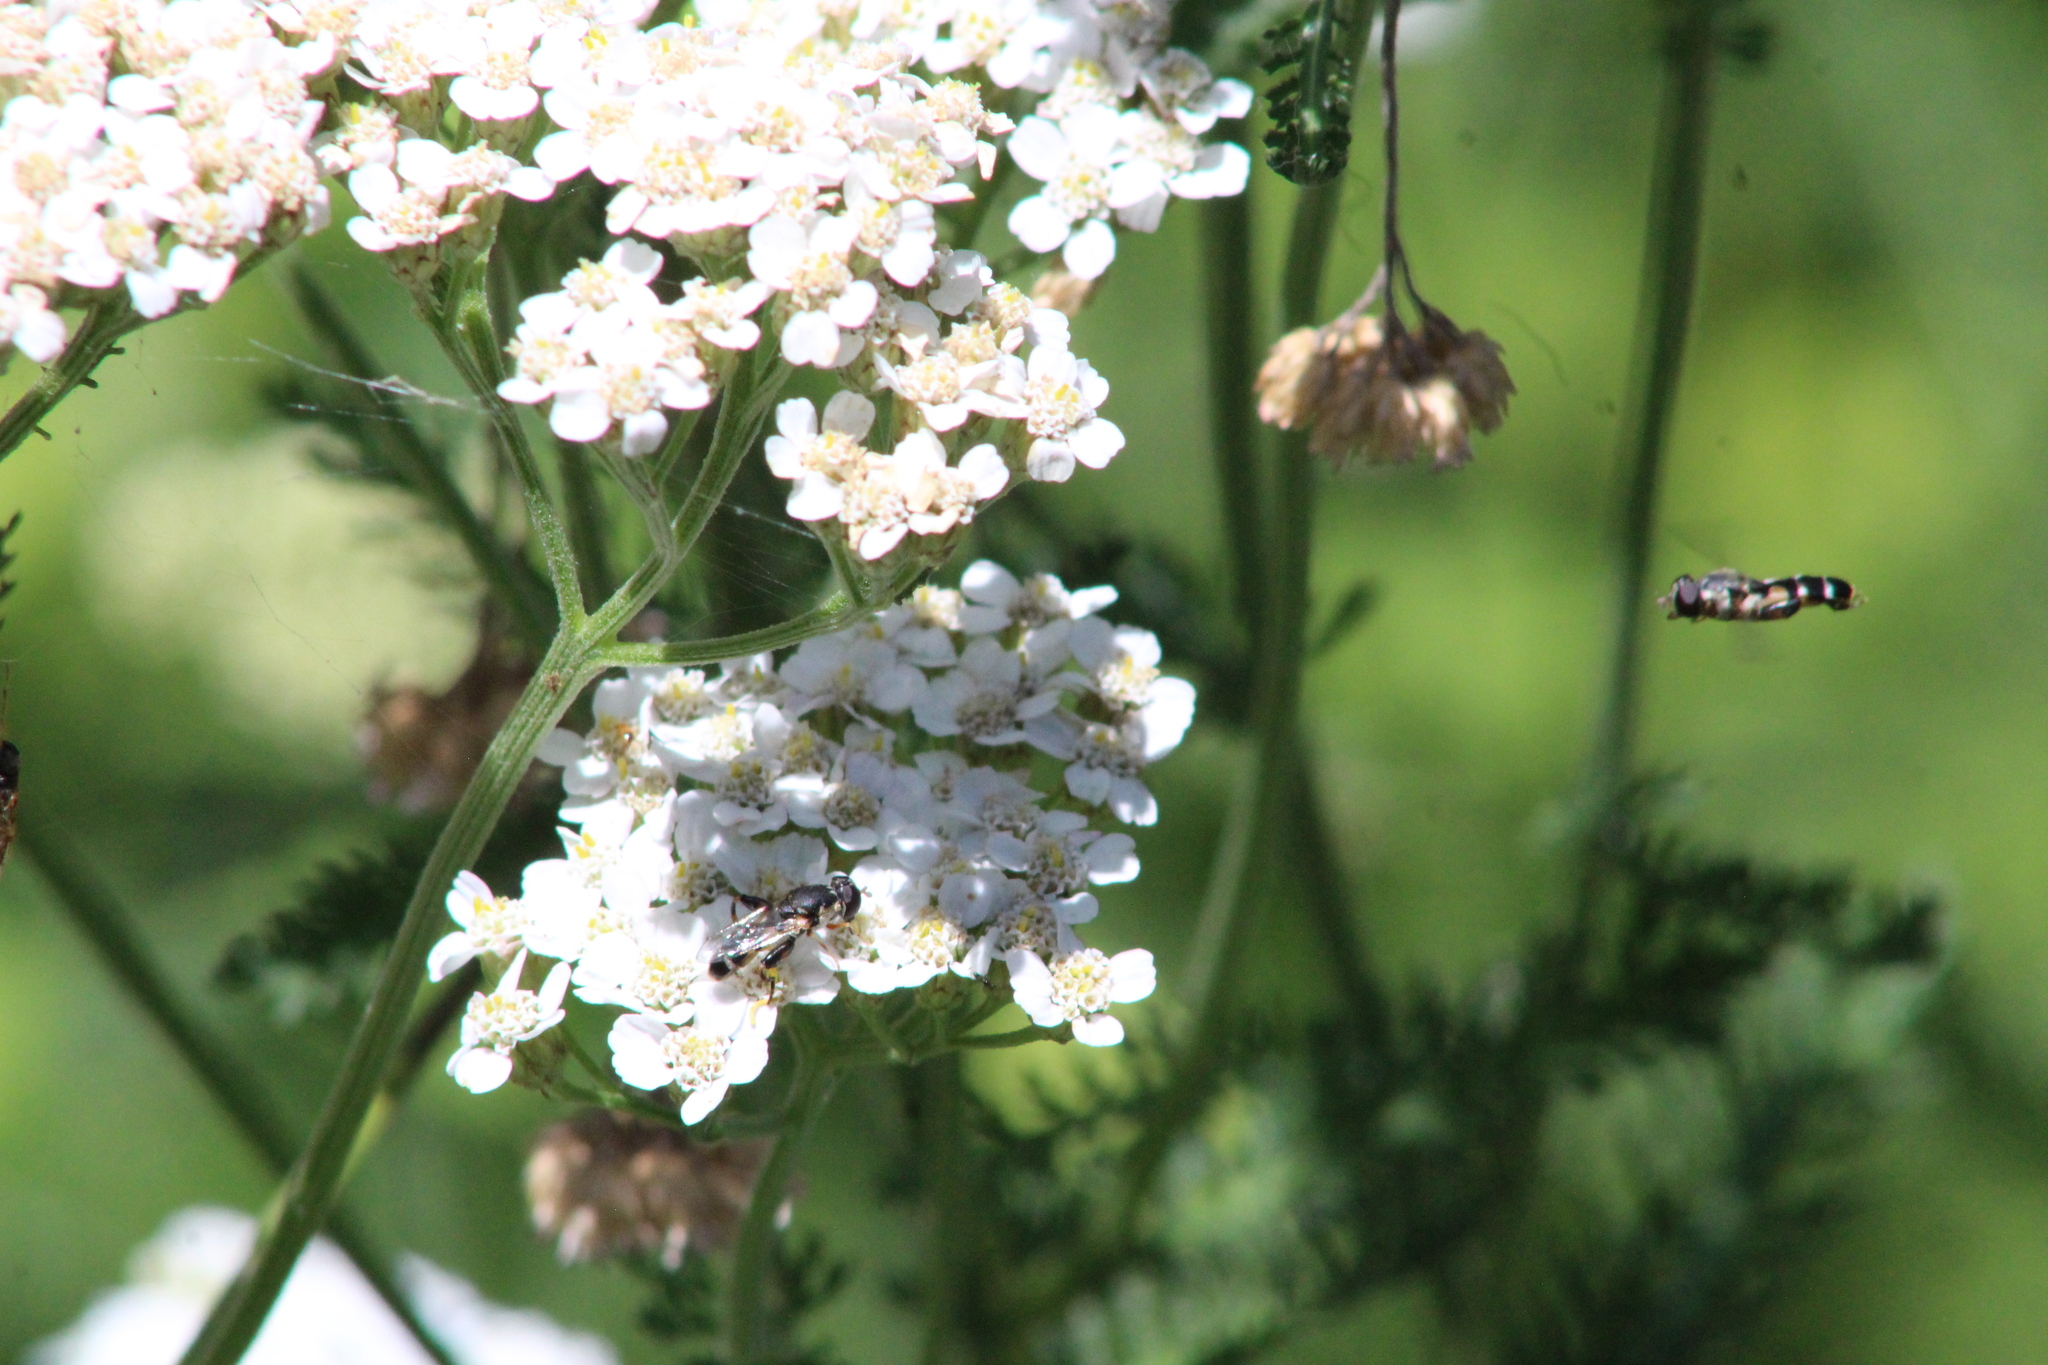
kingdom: Animalia
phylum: Arthropoda
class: Insecta
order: Diptera
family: Syrphidae
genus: Syritta
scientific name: Syritta pipiens
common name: Hover fly
